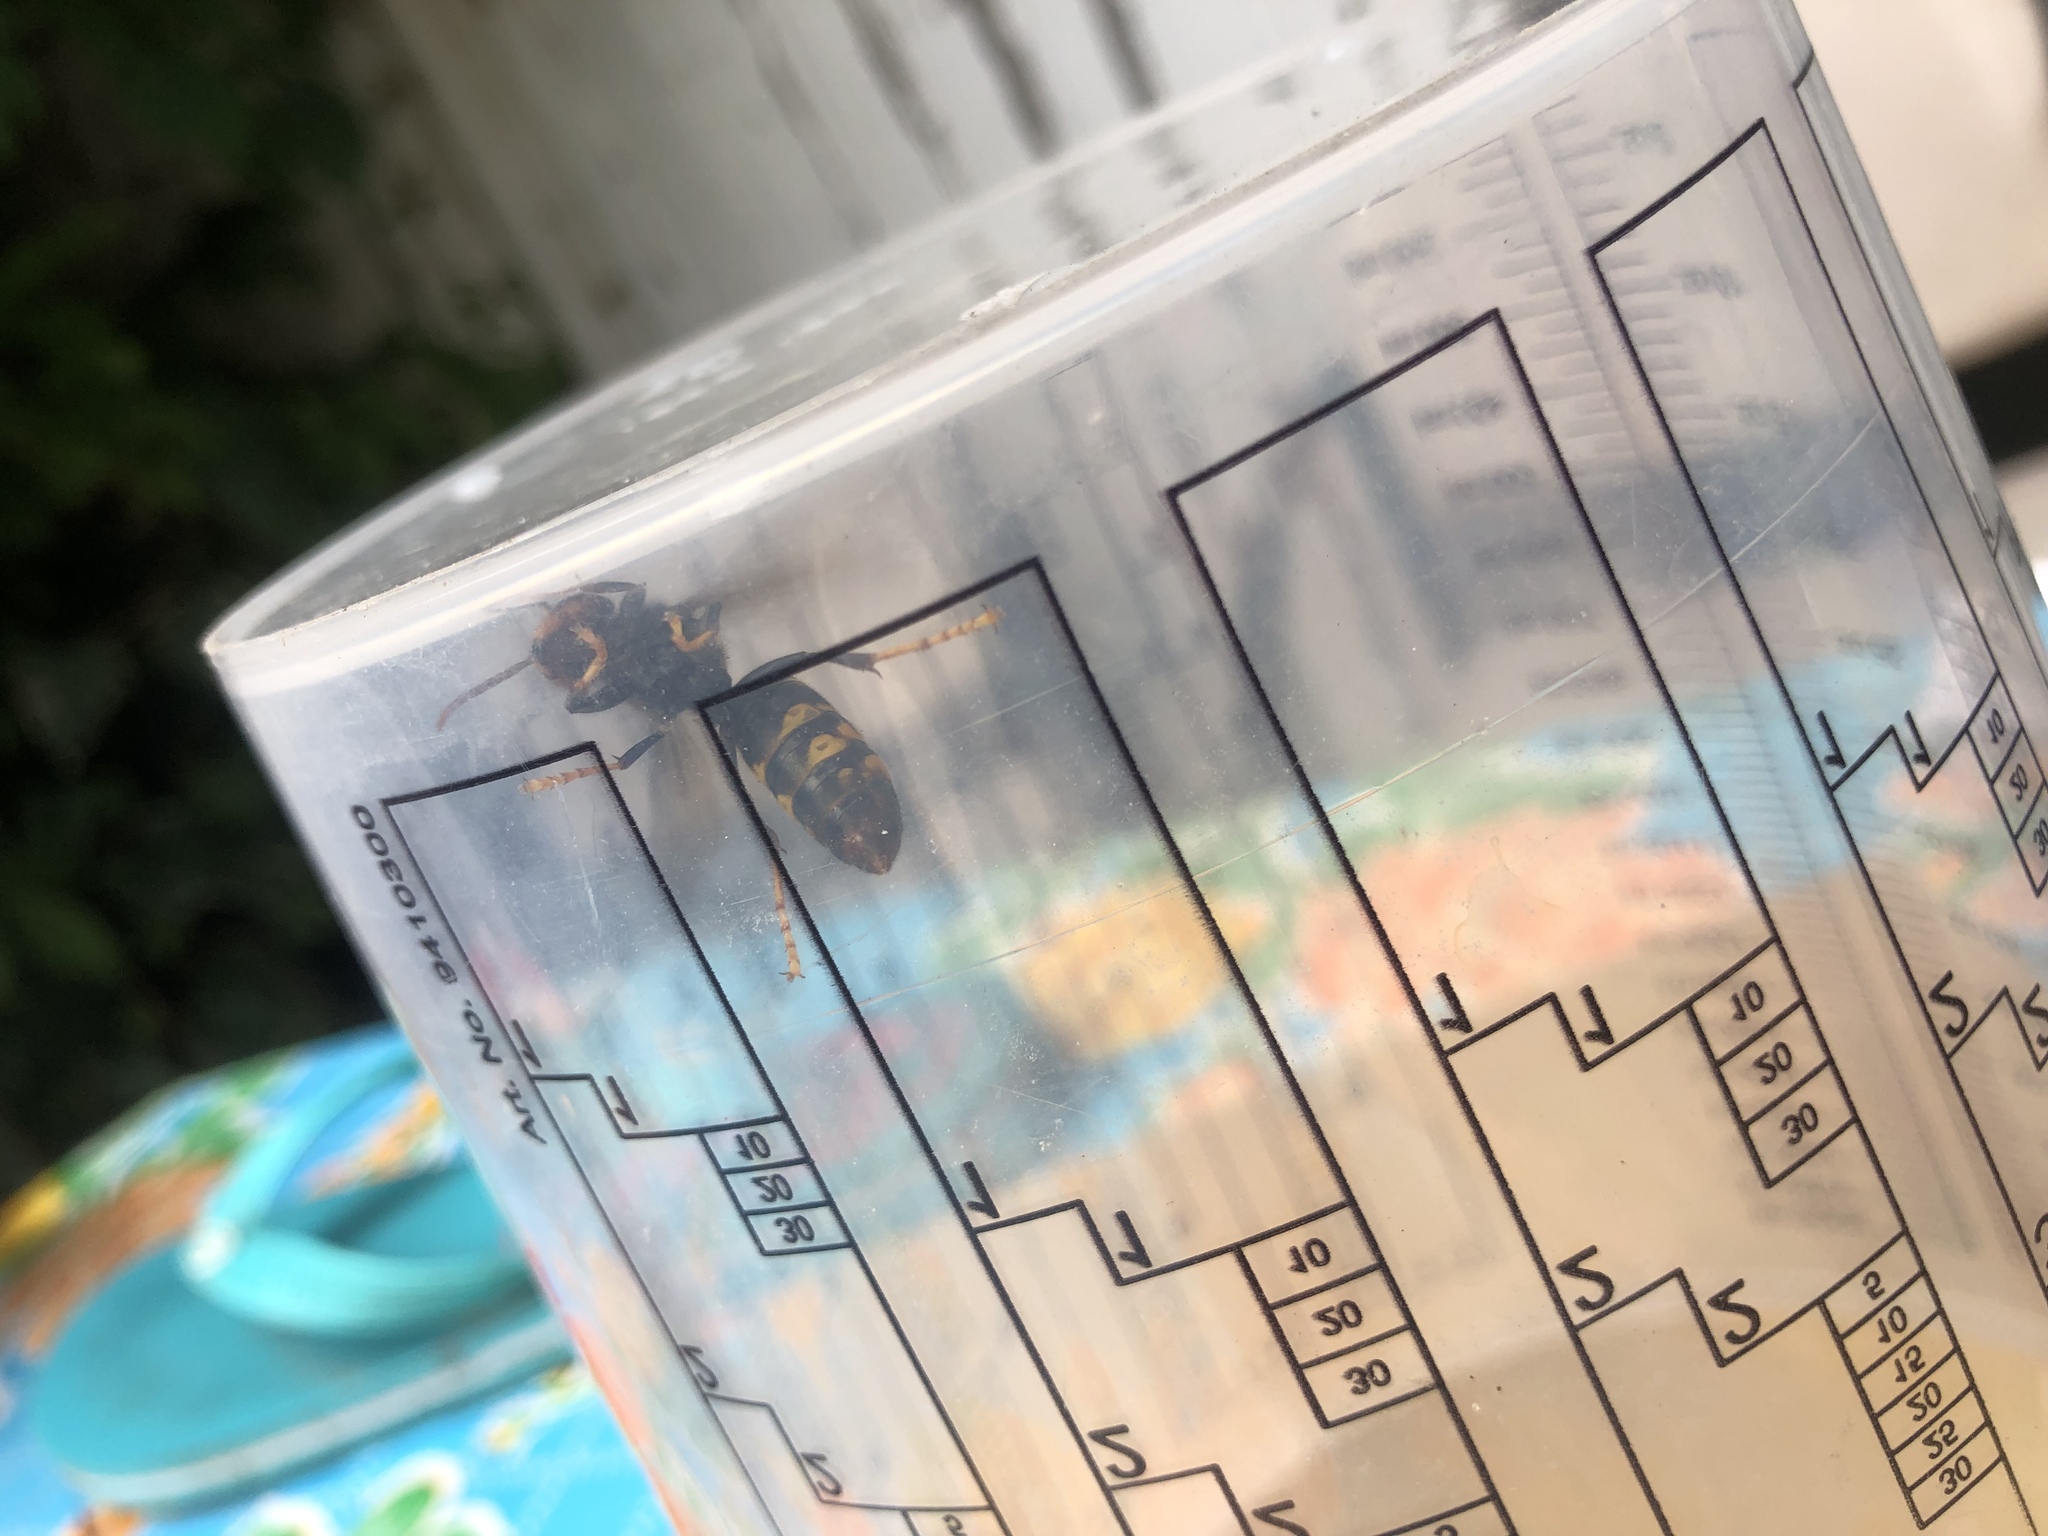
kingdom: Animalia
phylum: Arthropoda
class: Insecta
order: Hymenoptera
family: Vespidae
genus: Vespa
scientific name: Vespa velutina
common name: Asian hornet
